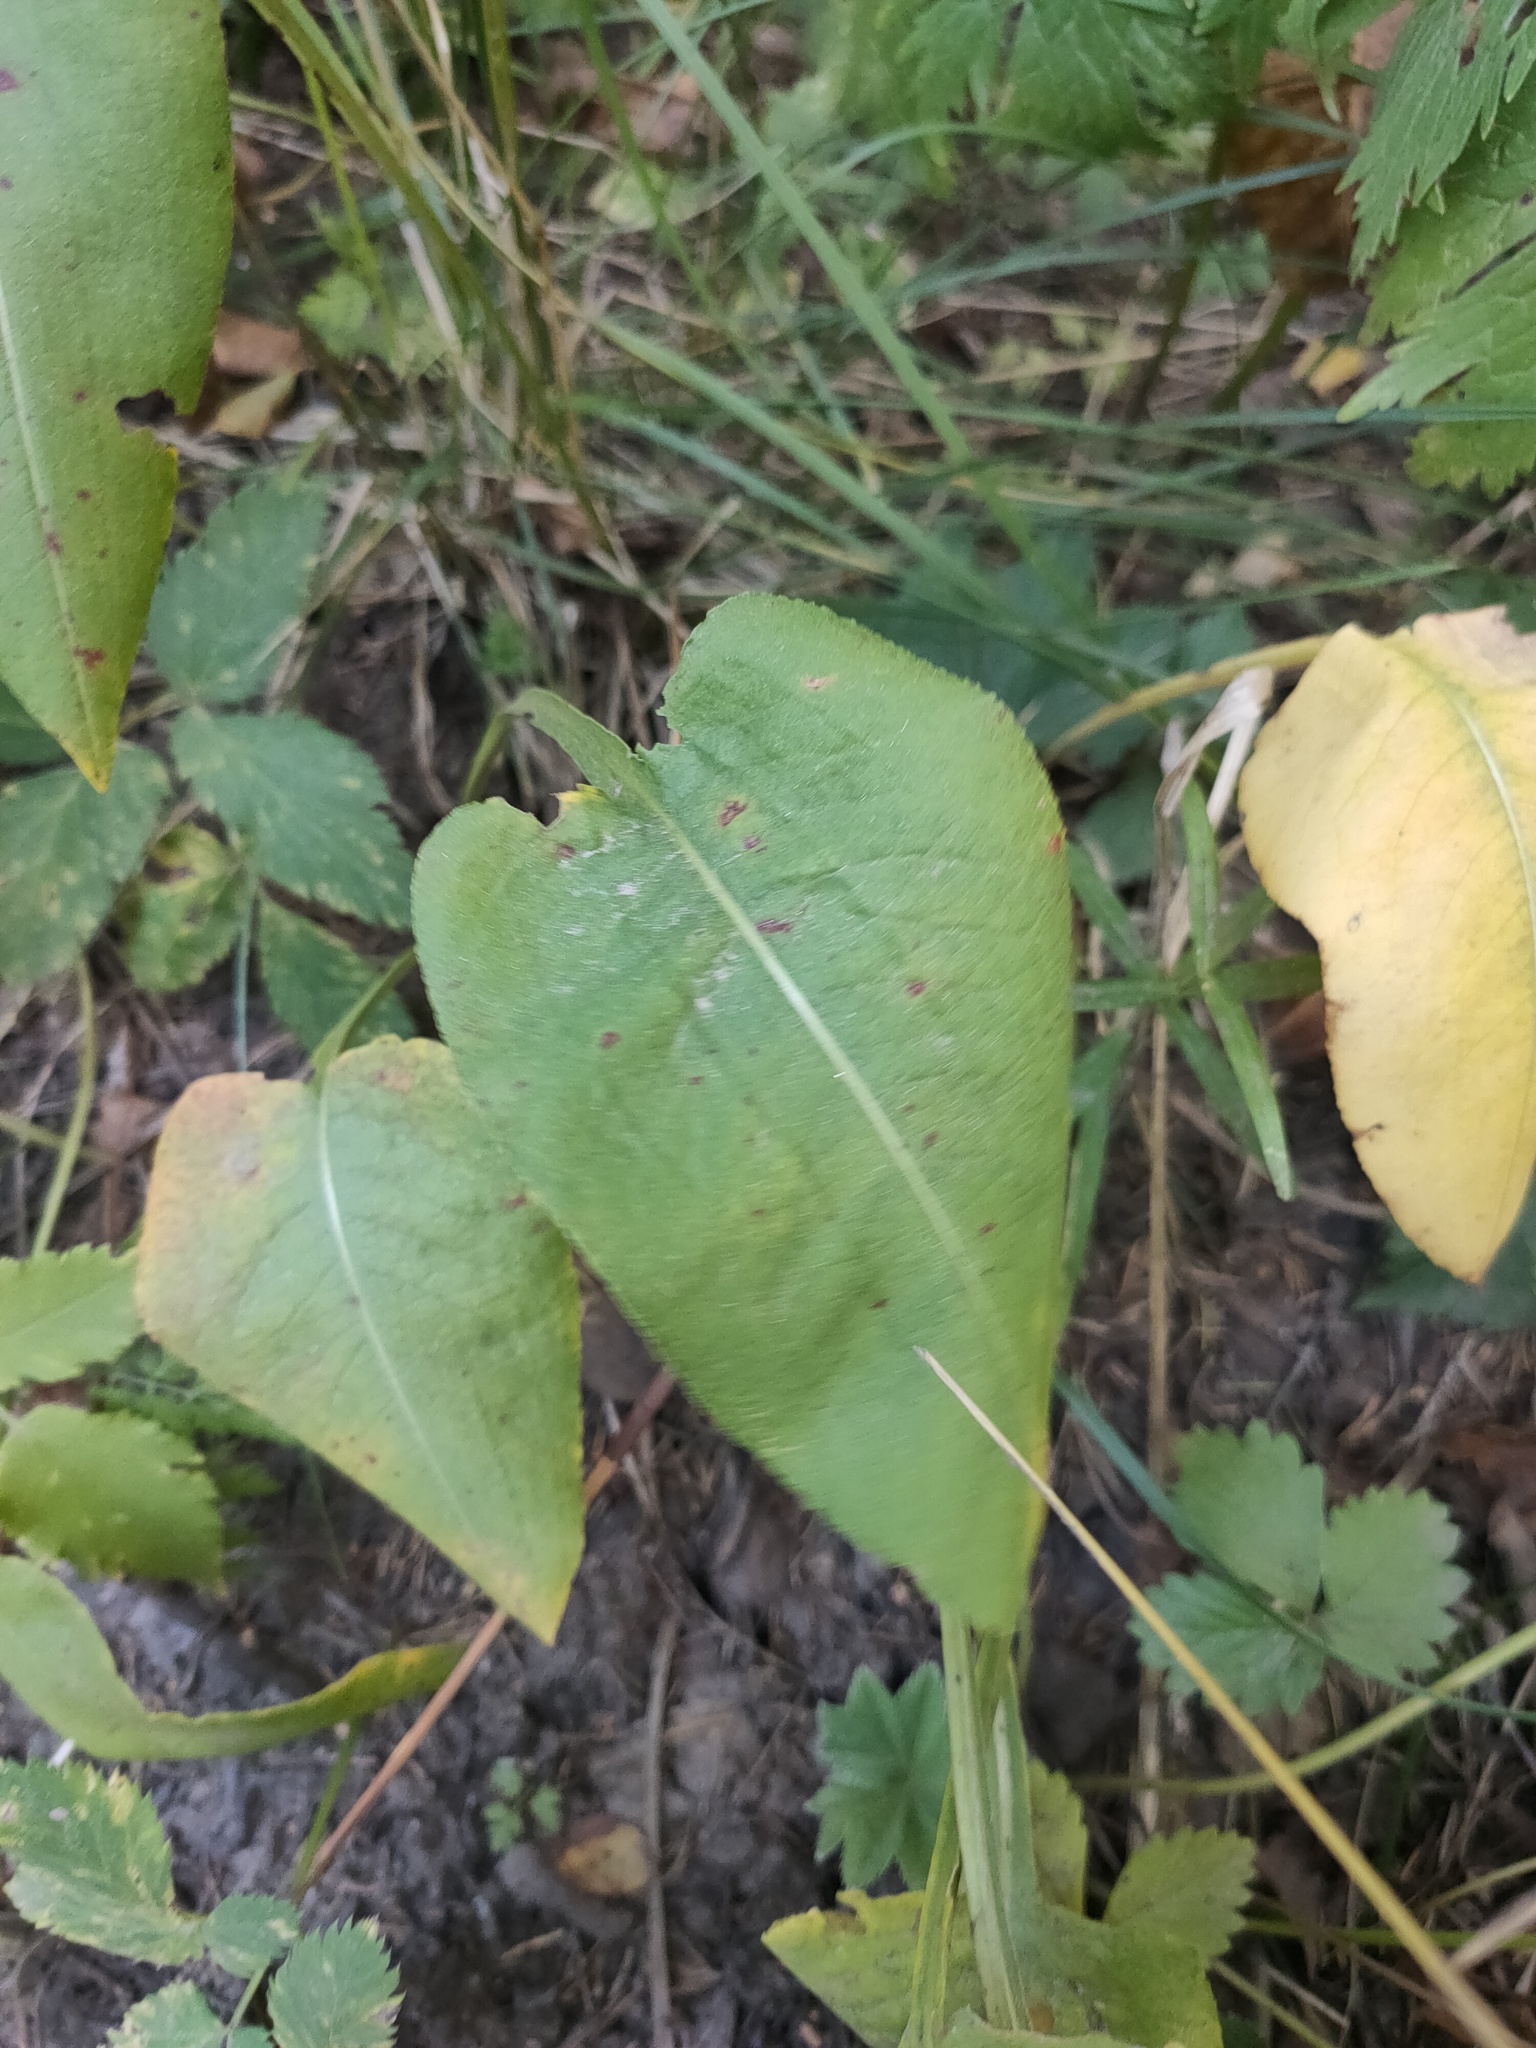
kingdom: Plantae
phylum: Tracheophyta
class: Magnoliopsida
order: Caryophyllales
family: Polygonaceae
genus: Bistorta
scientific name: Bistorta officinalis
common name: Common bistort
